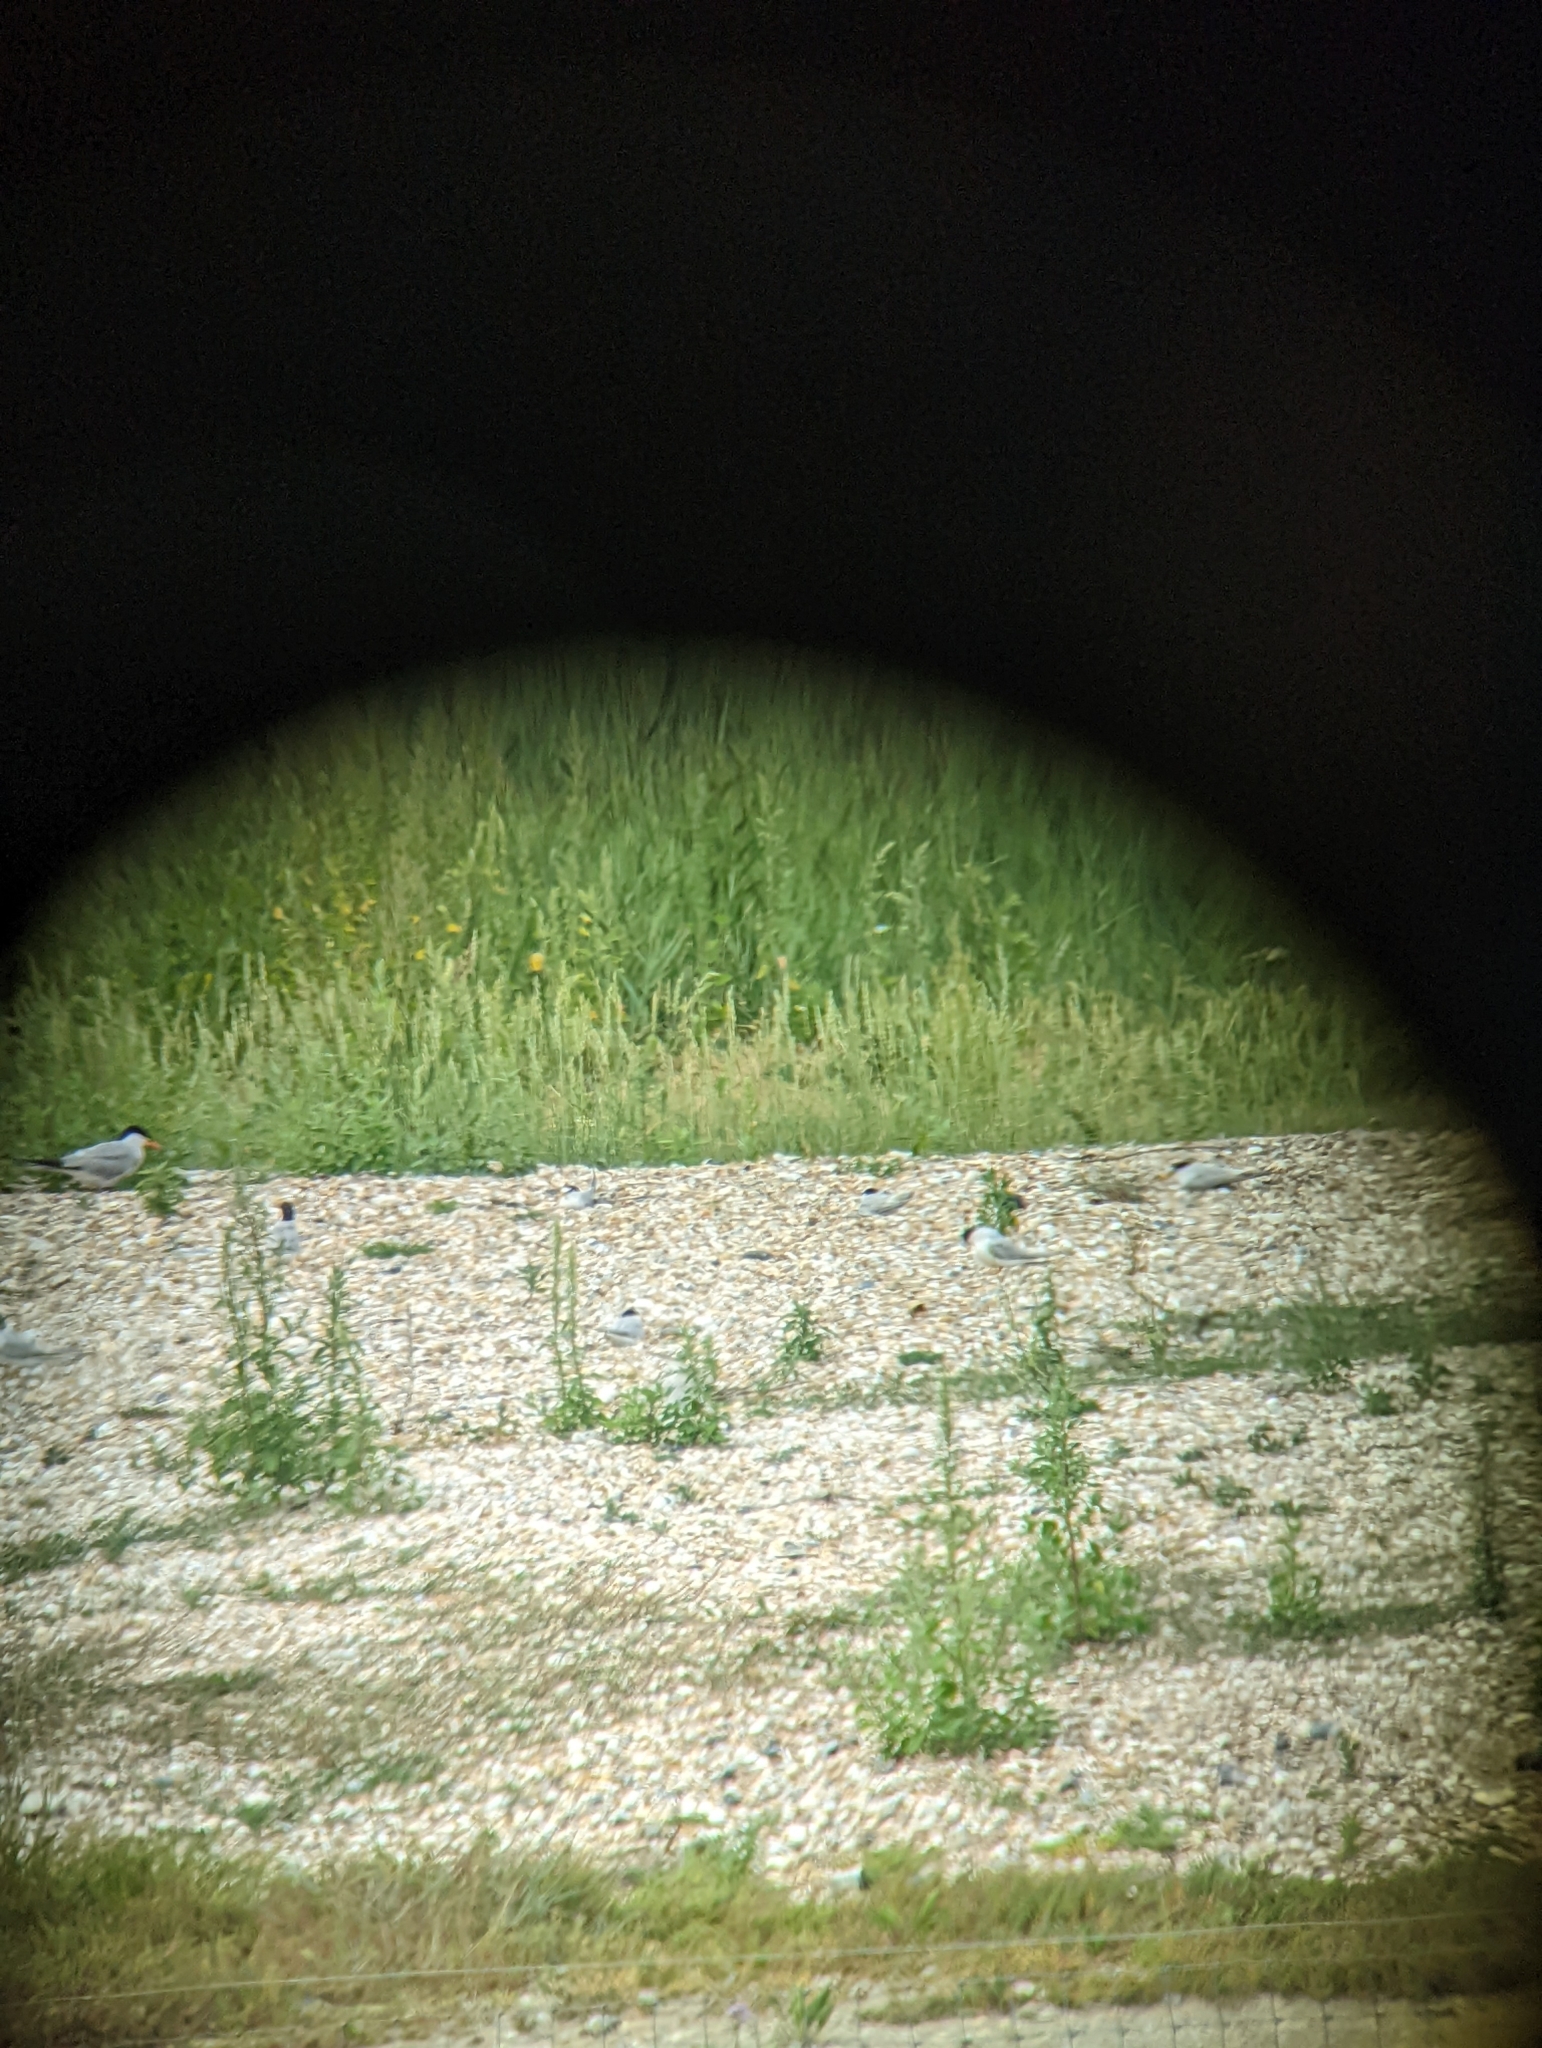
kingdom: Animalia
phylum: Chordata
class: Aves
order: Charadriiformes
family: Laridae
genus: Sternula
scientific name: Sternula albifrons
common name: Little tern
